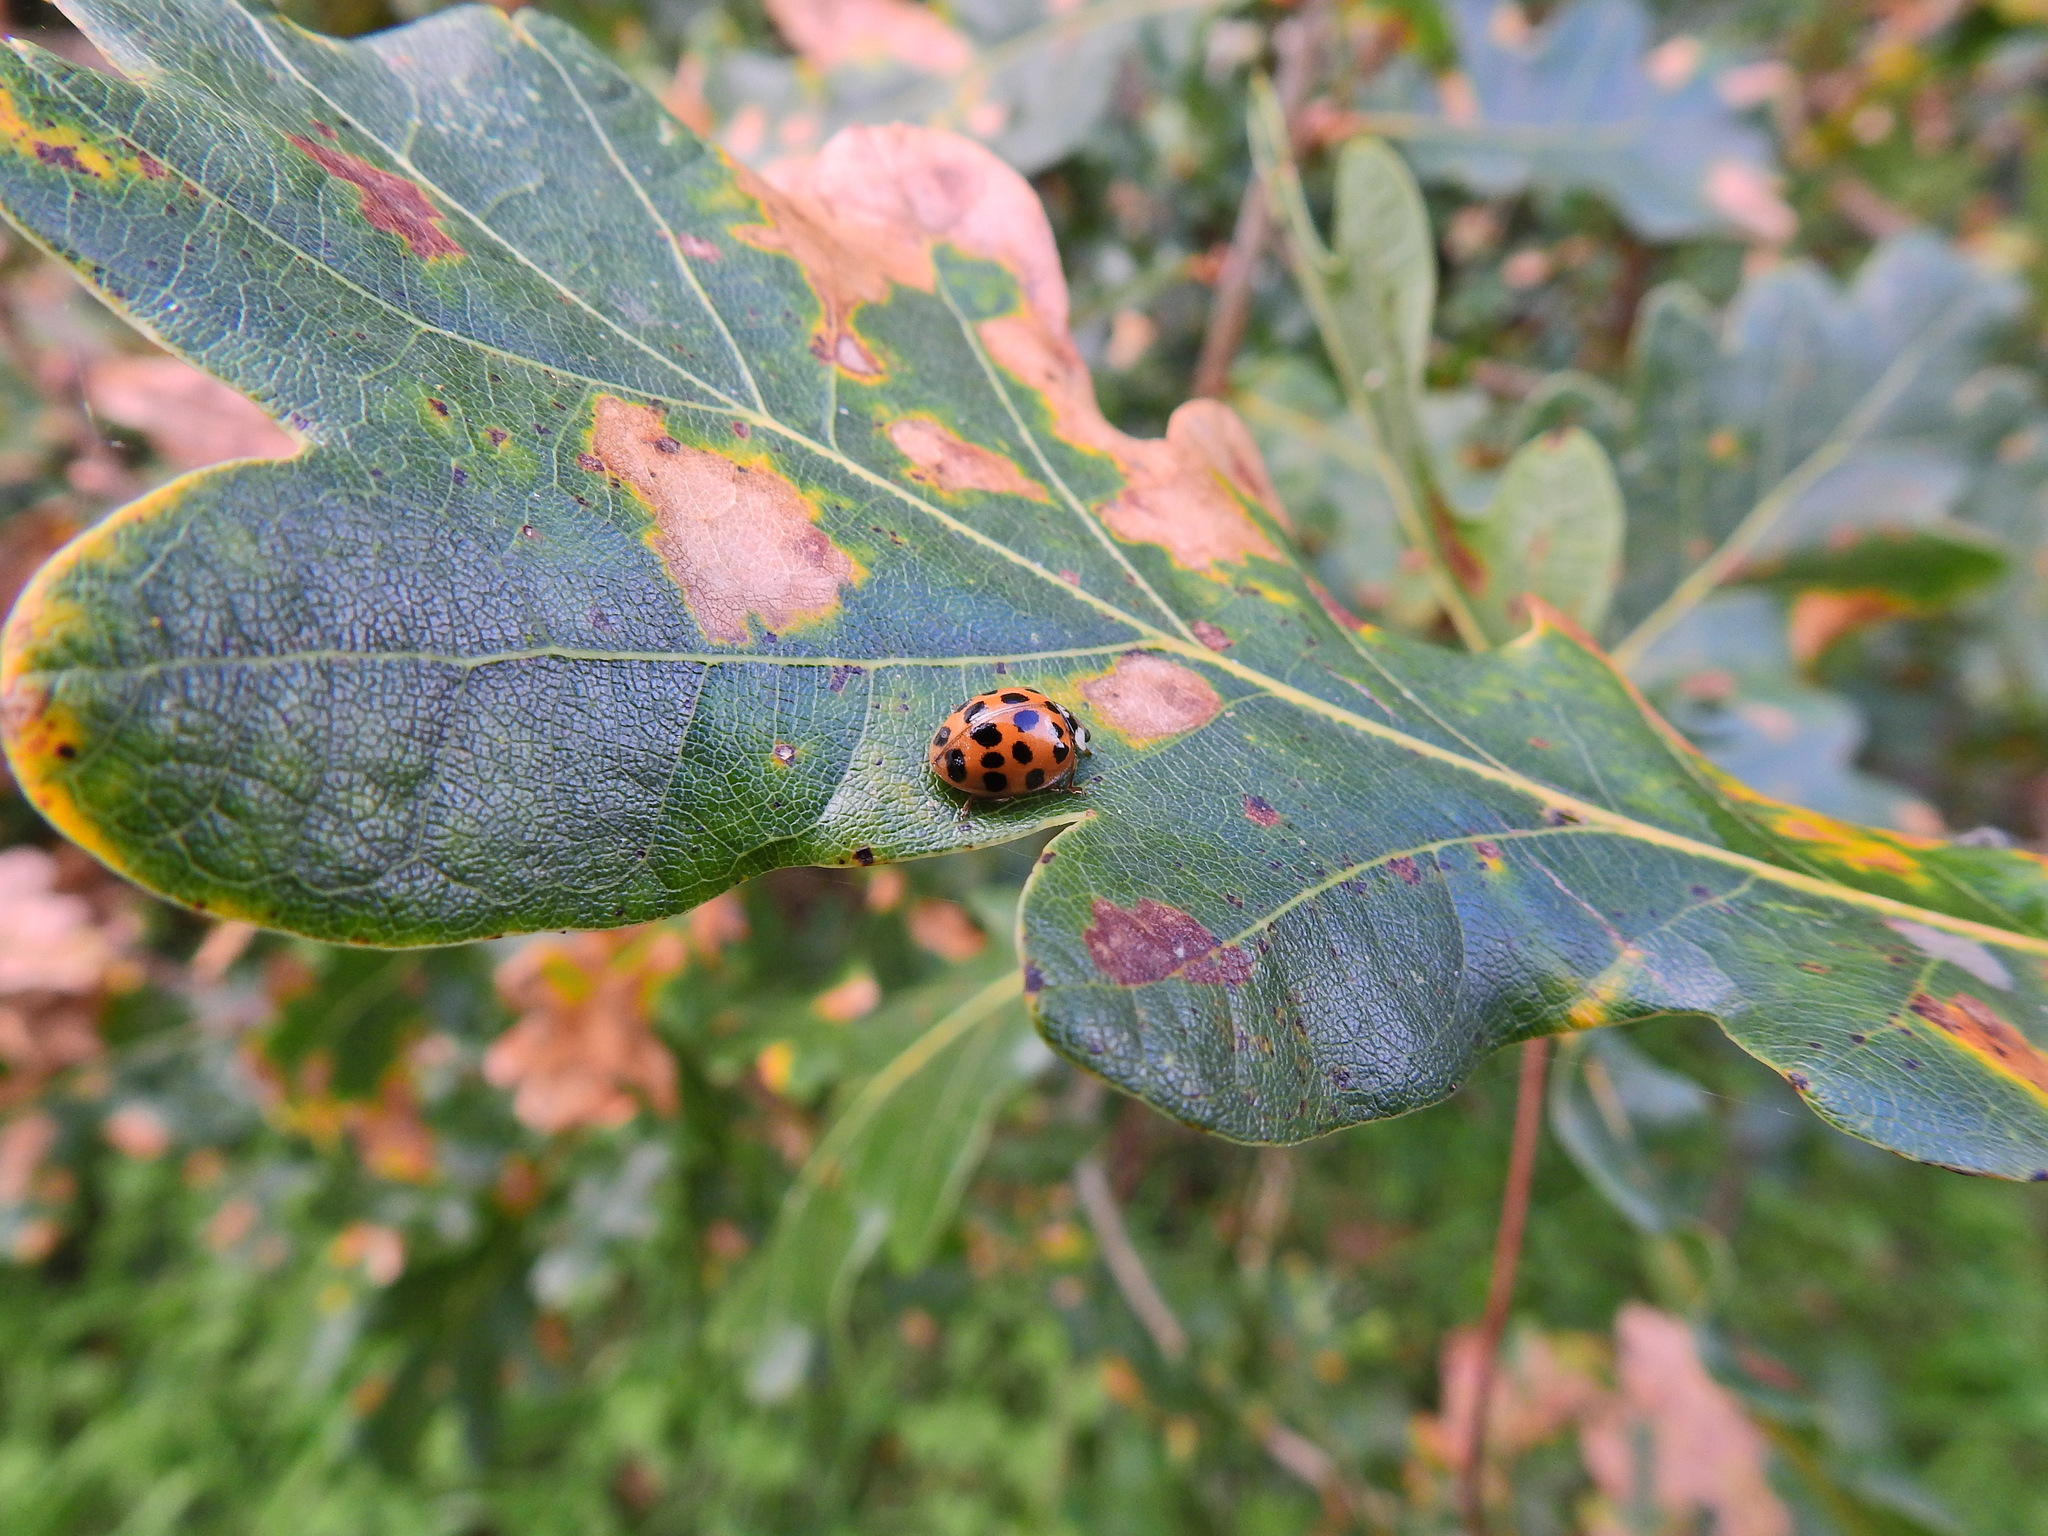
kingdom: Animalia
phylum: Arthropoda
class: Insecta
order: Coleoptera
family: Coccinellidae
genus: Harmonia
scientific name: Harmonia axyridis
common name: Harlequin ladybird
